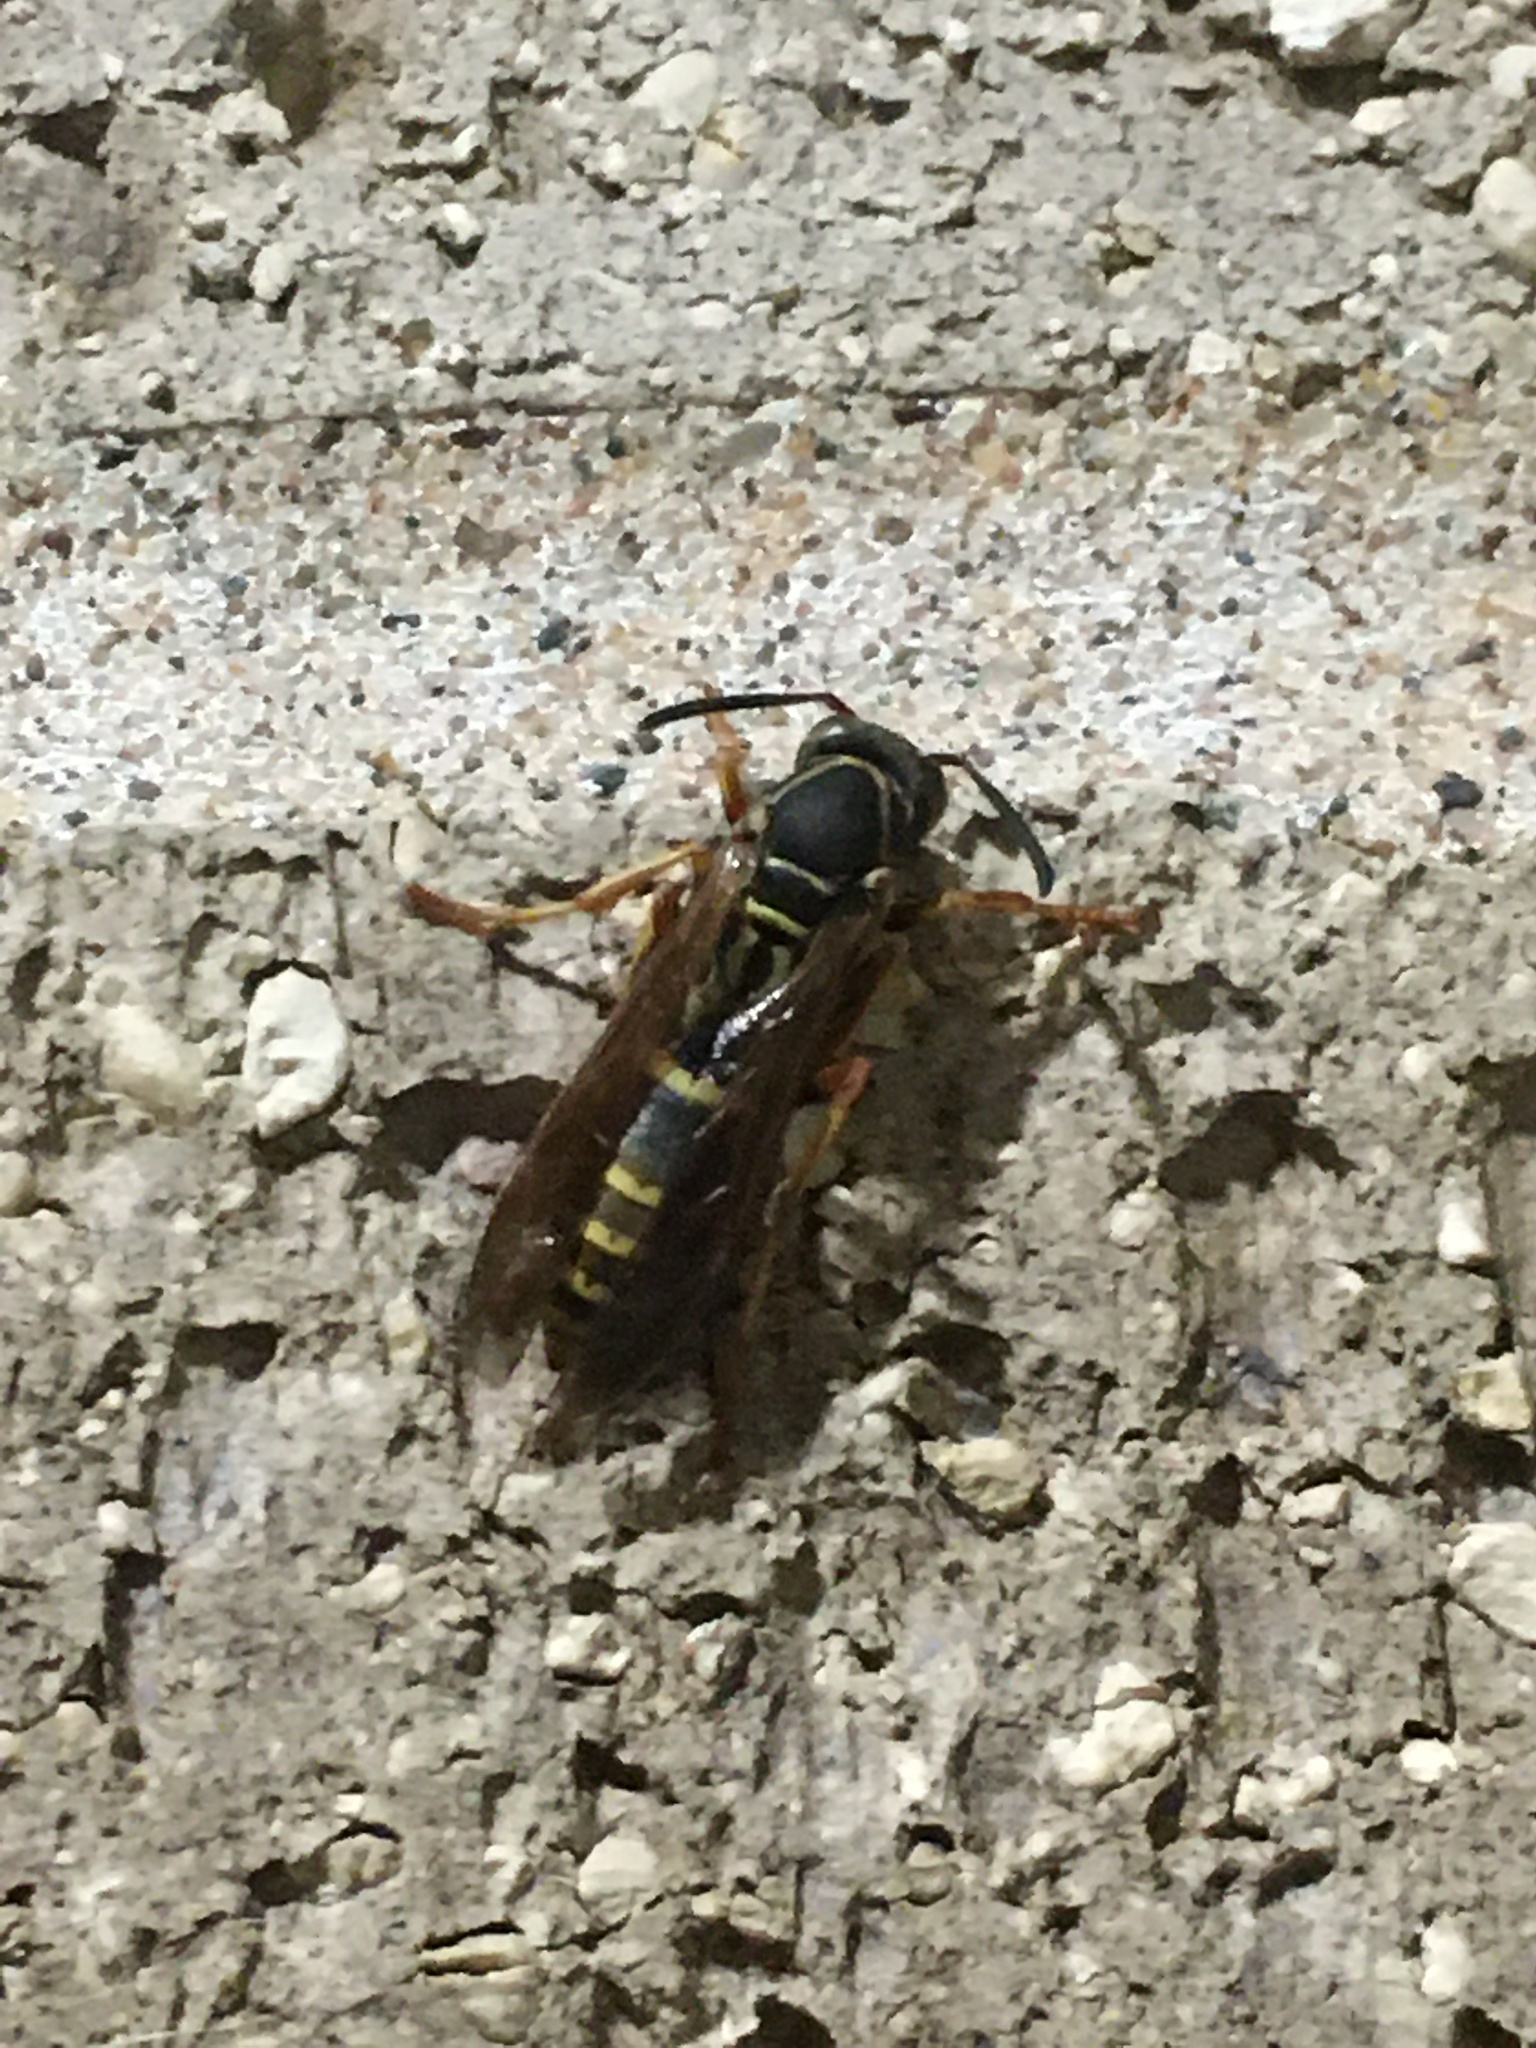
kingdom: Animalia
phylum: Arthropoda
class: Insecta
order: Hymenoptera
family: Eumenidae
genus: Polistes
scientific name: Polistes fuscatus
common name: Dark paper wasp
